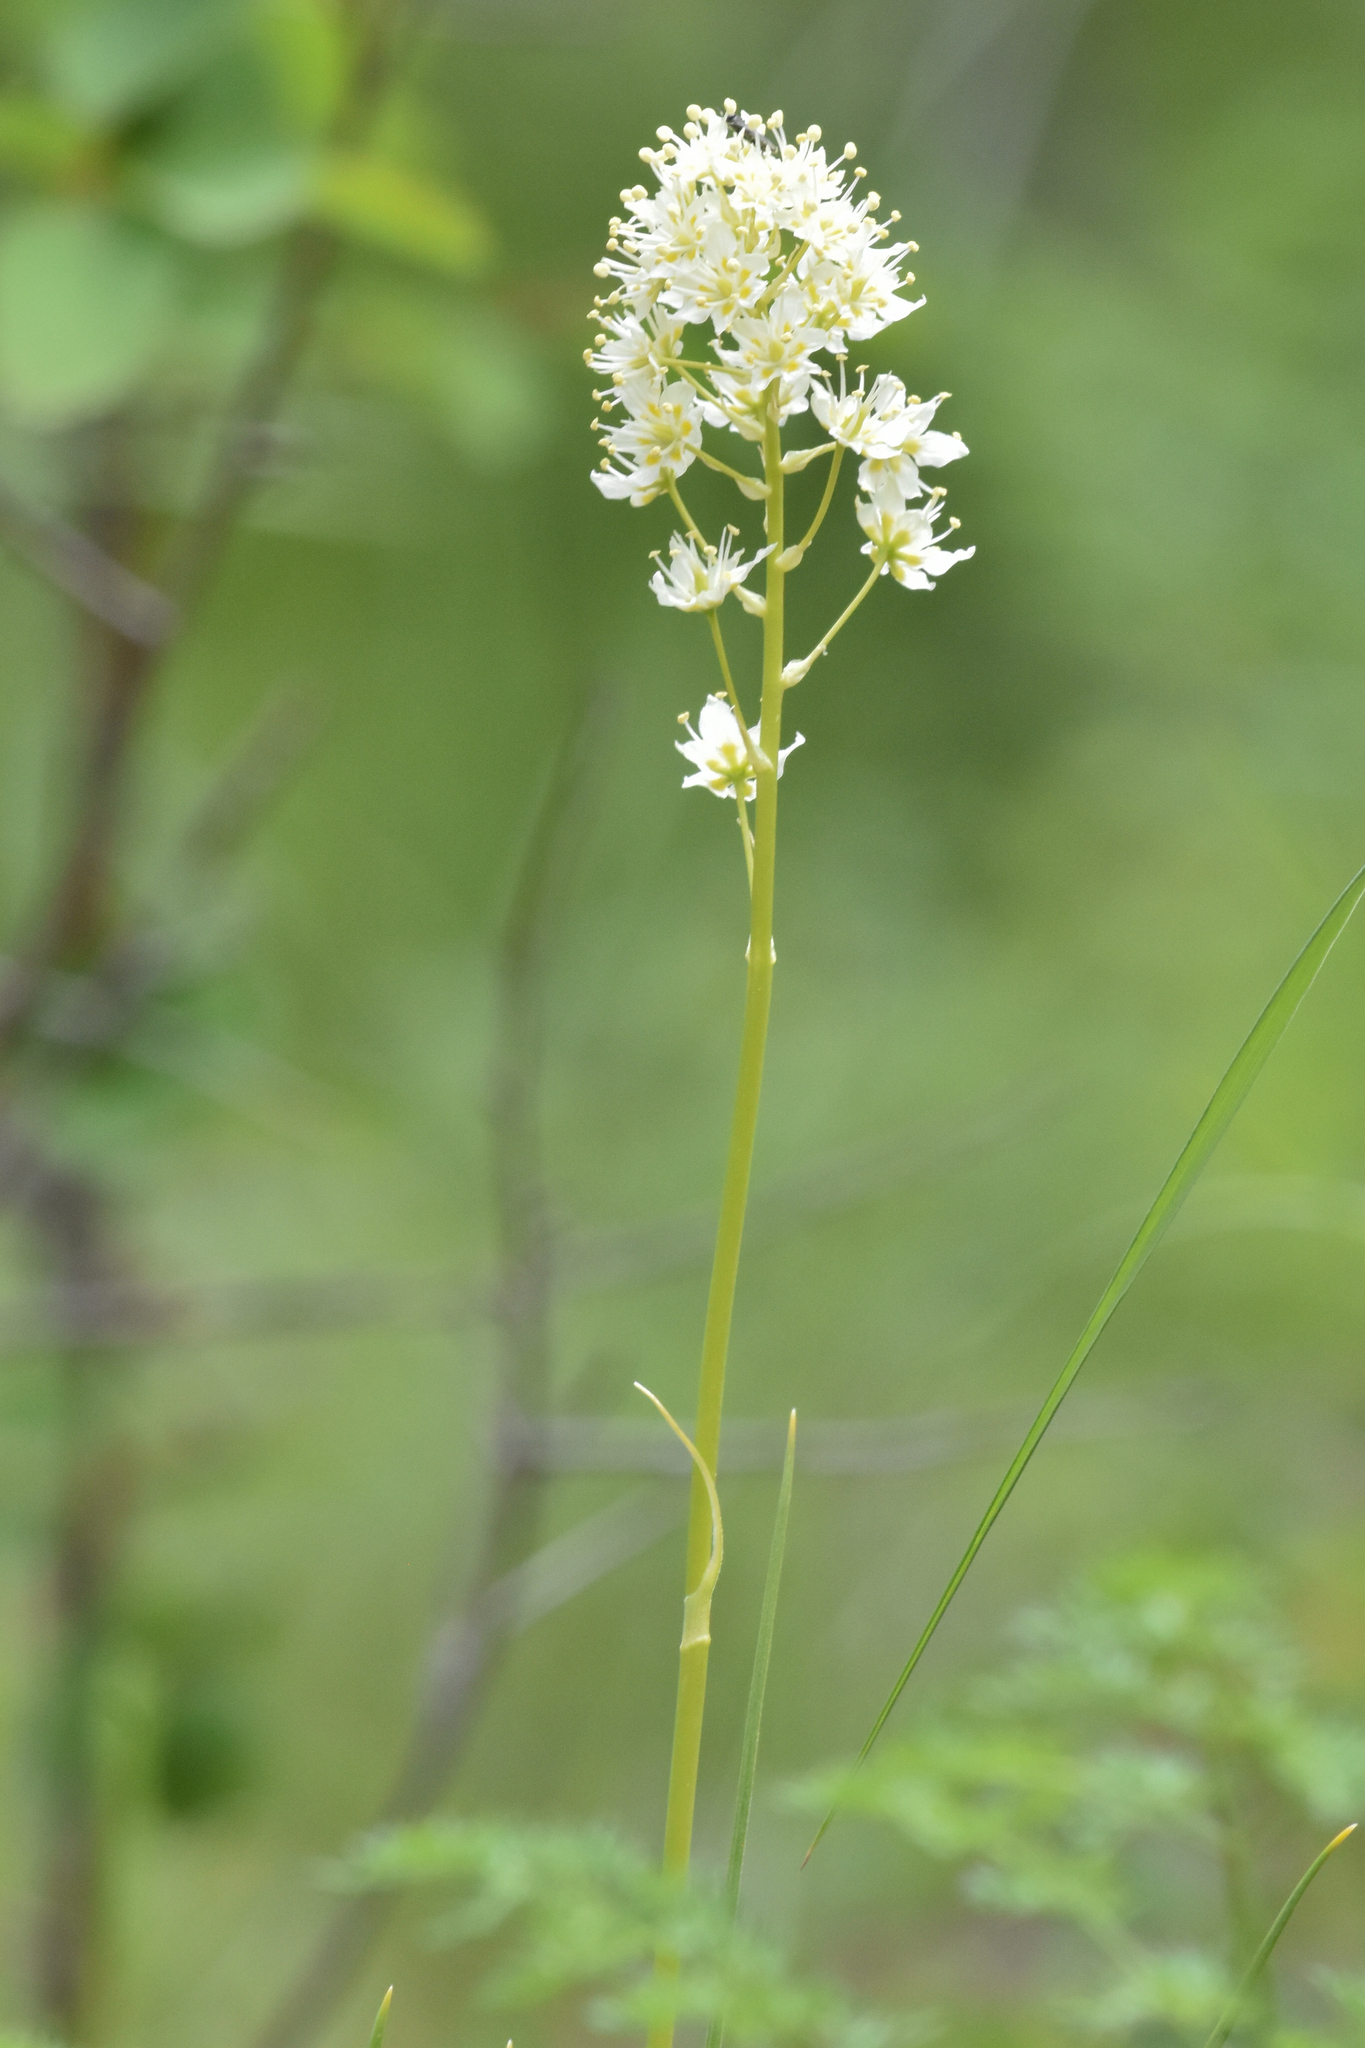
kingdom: Plantae
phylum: Tracheophyta
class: Liliopsida
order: Liliales
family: Melanthiaceae
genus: Toxicoscordion
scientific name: Toxicoscordion venenosum
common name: Meadow death camas
